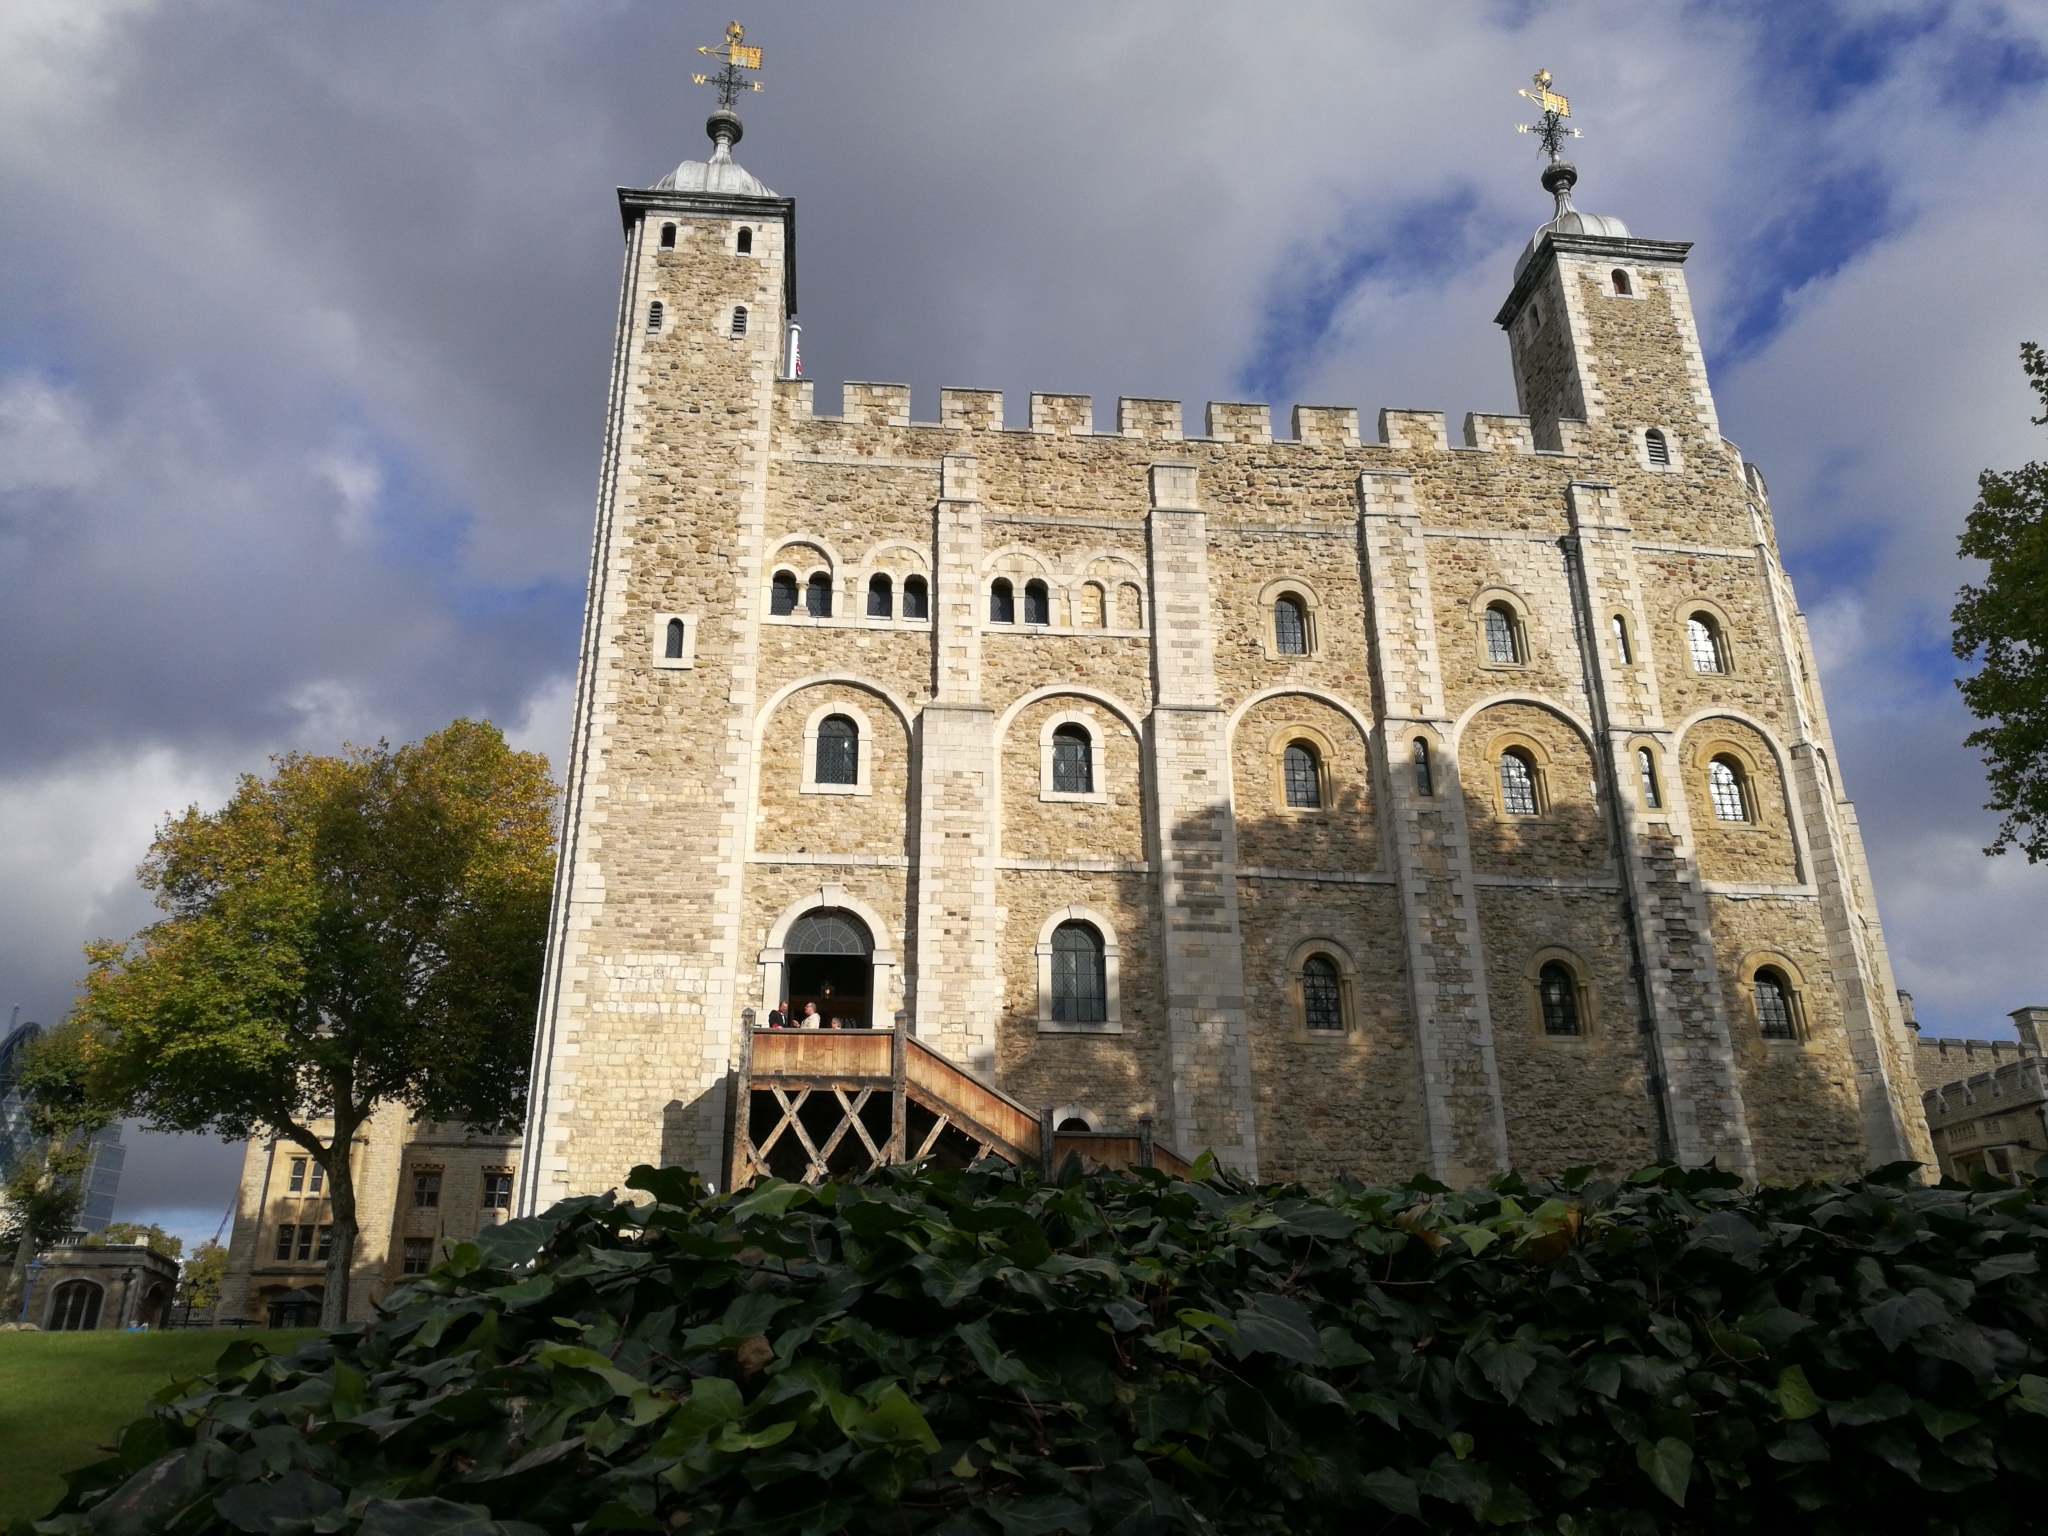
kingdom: Plantae
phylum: Tracheophyta
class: Magnoliopsida
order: Apiales
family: Araliaceae
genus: Hedera
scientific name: Hedera helix
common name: Ivy
